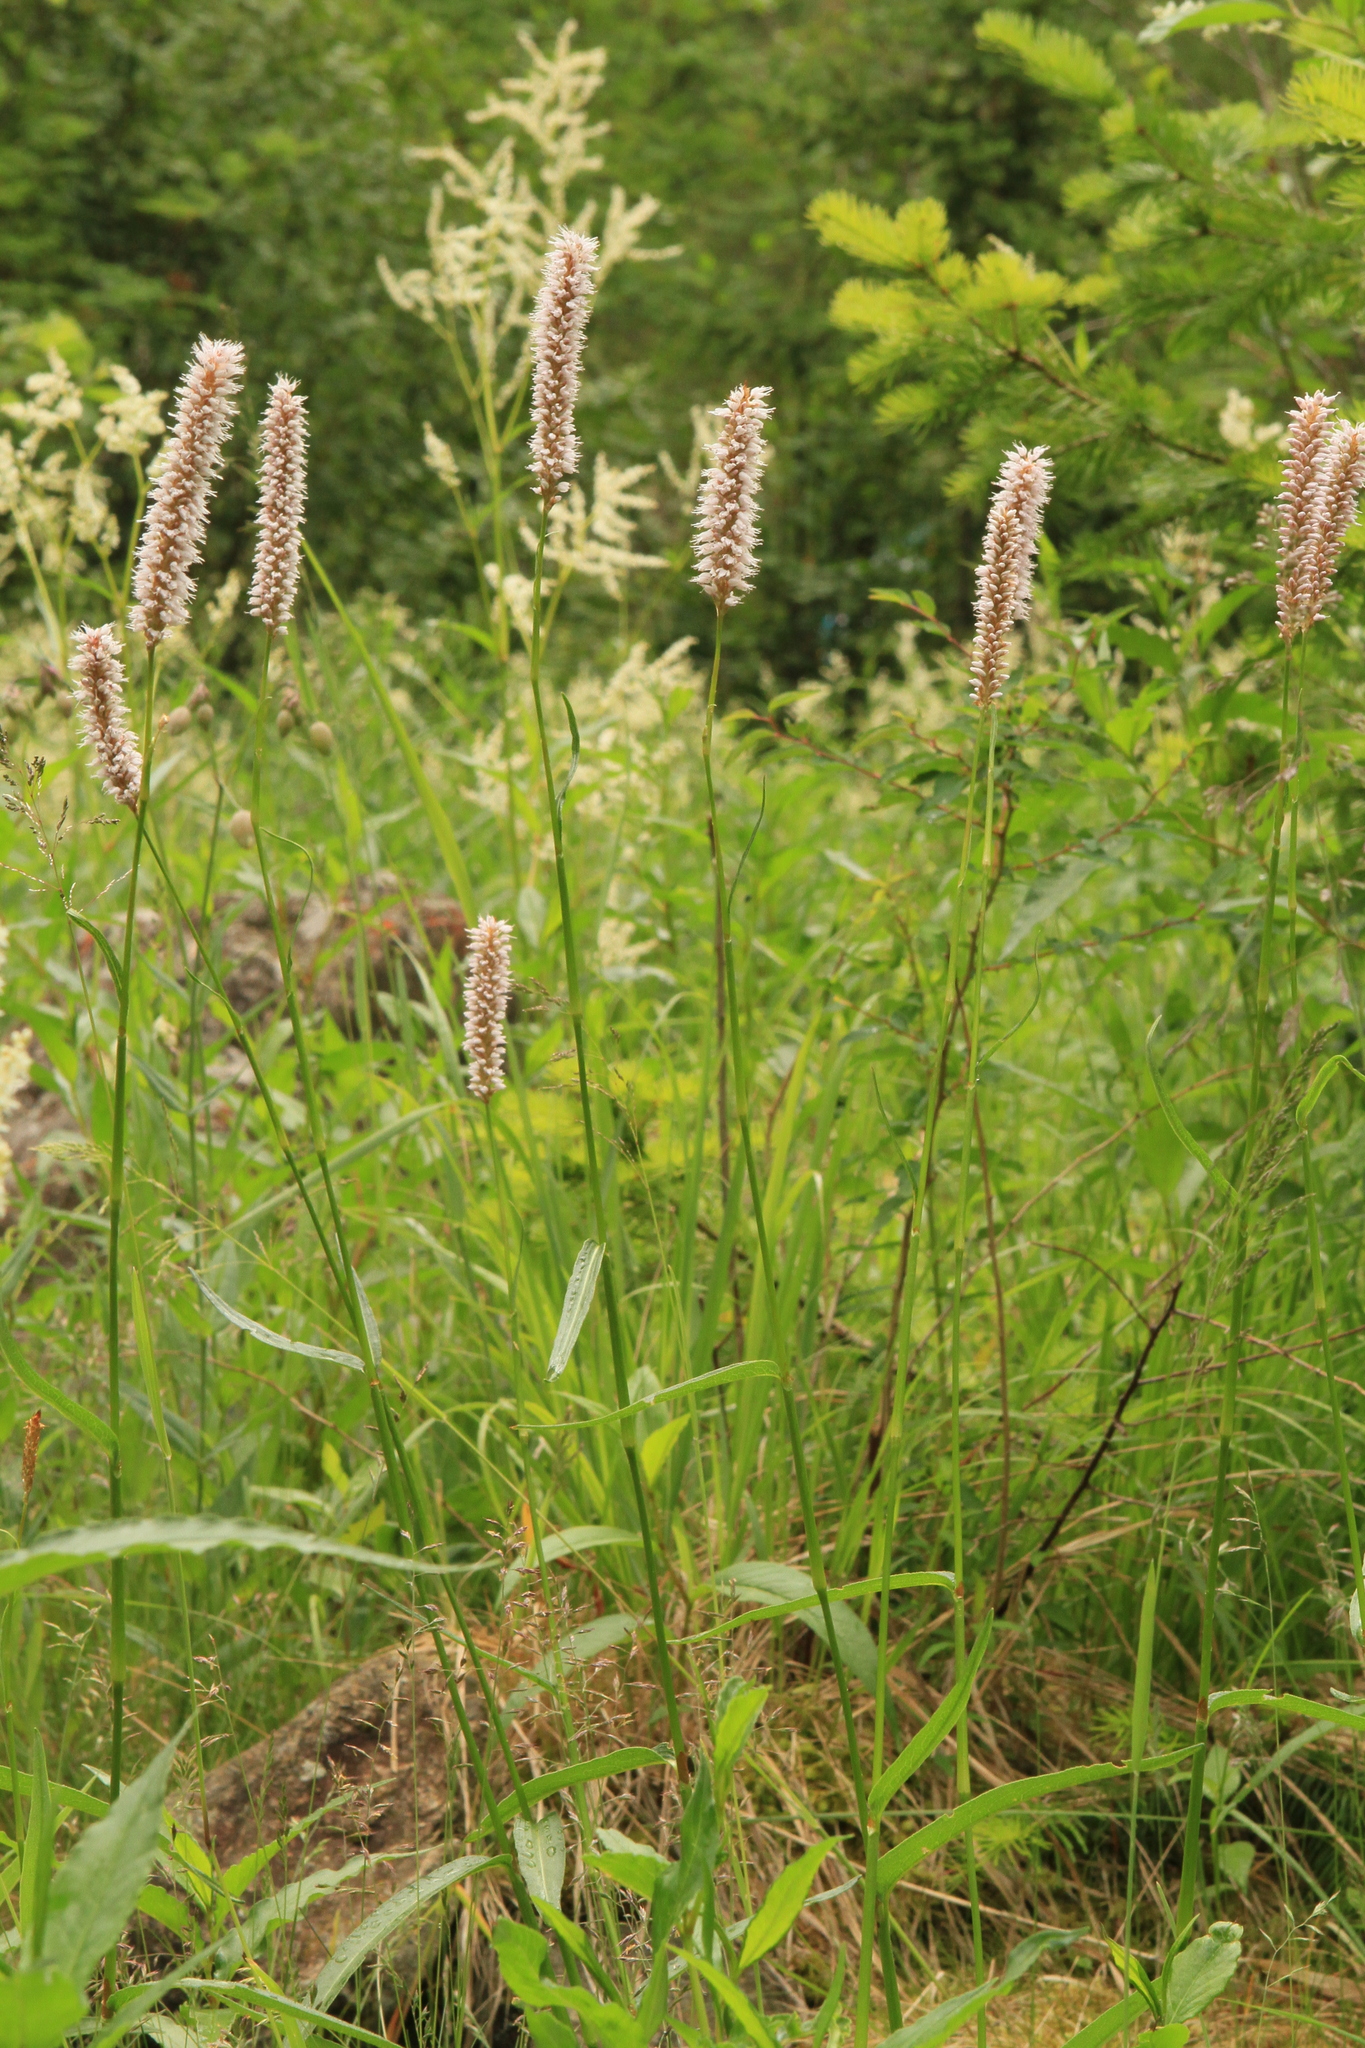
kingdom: Plantae
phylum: Tracheophyta
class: Magnoliopsida
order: Caryophyllales
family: Polygonaceae
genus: Bistorta
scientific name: Bistorta officinalis
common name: Common bistort
